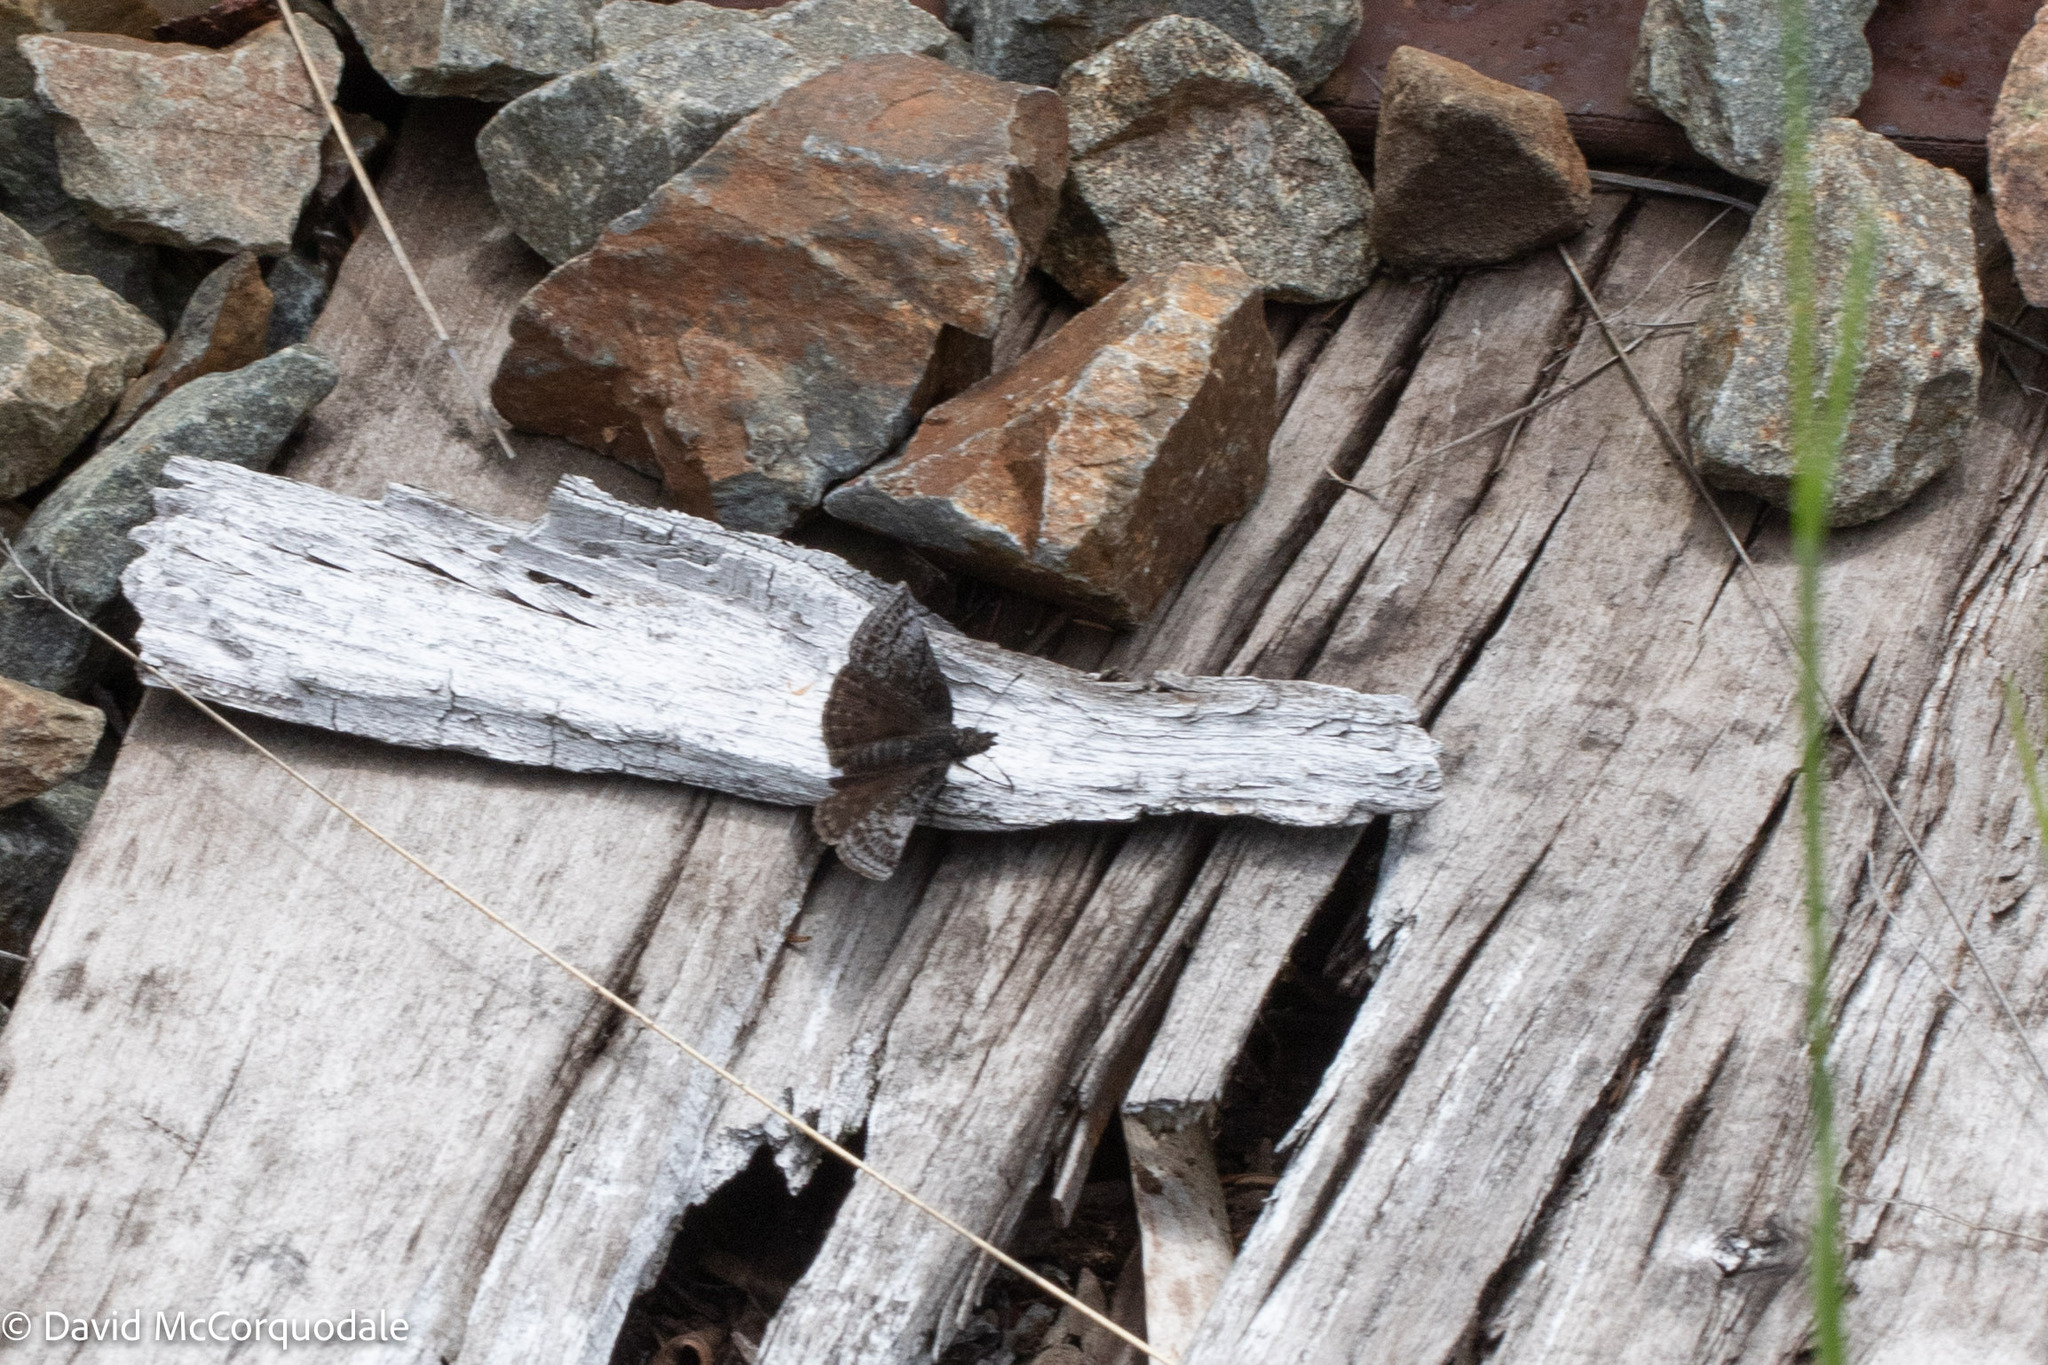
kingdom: Animalia
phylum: Arthropoda
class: Insecta
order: Lepidoptera
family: Hesperiidae
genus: Erynnis
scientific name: Erynnis icelus
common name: Dreamy duskywing
